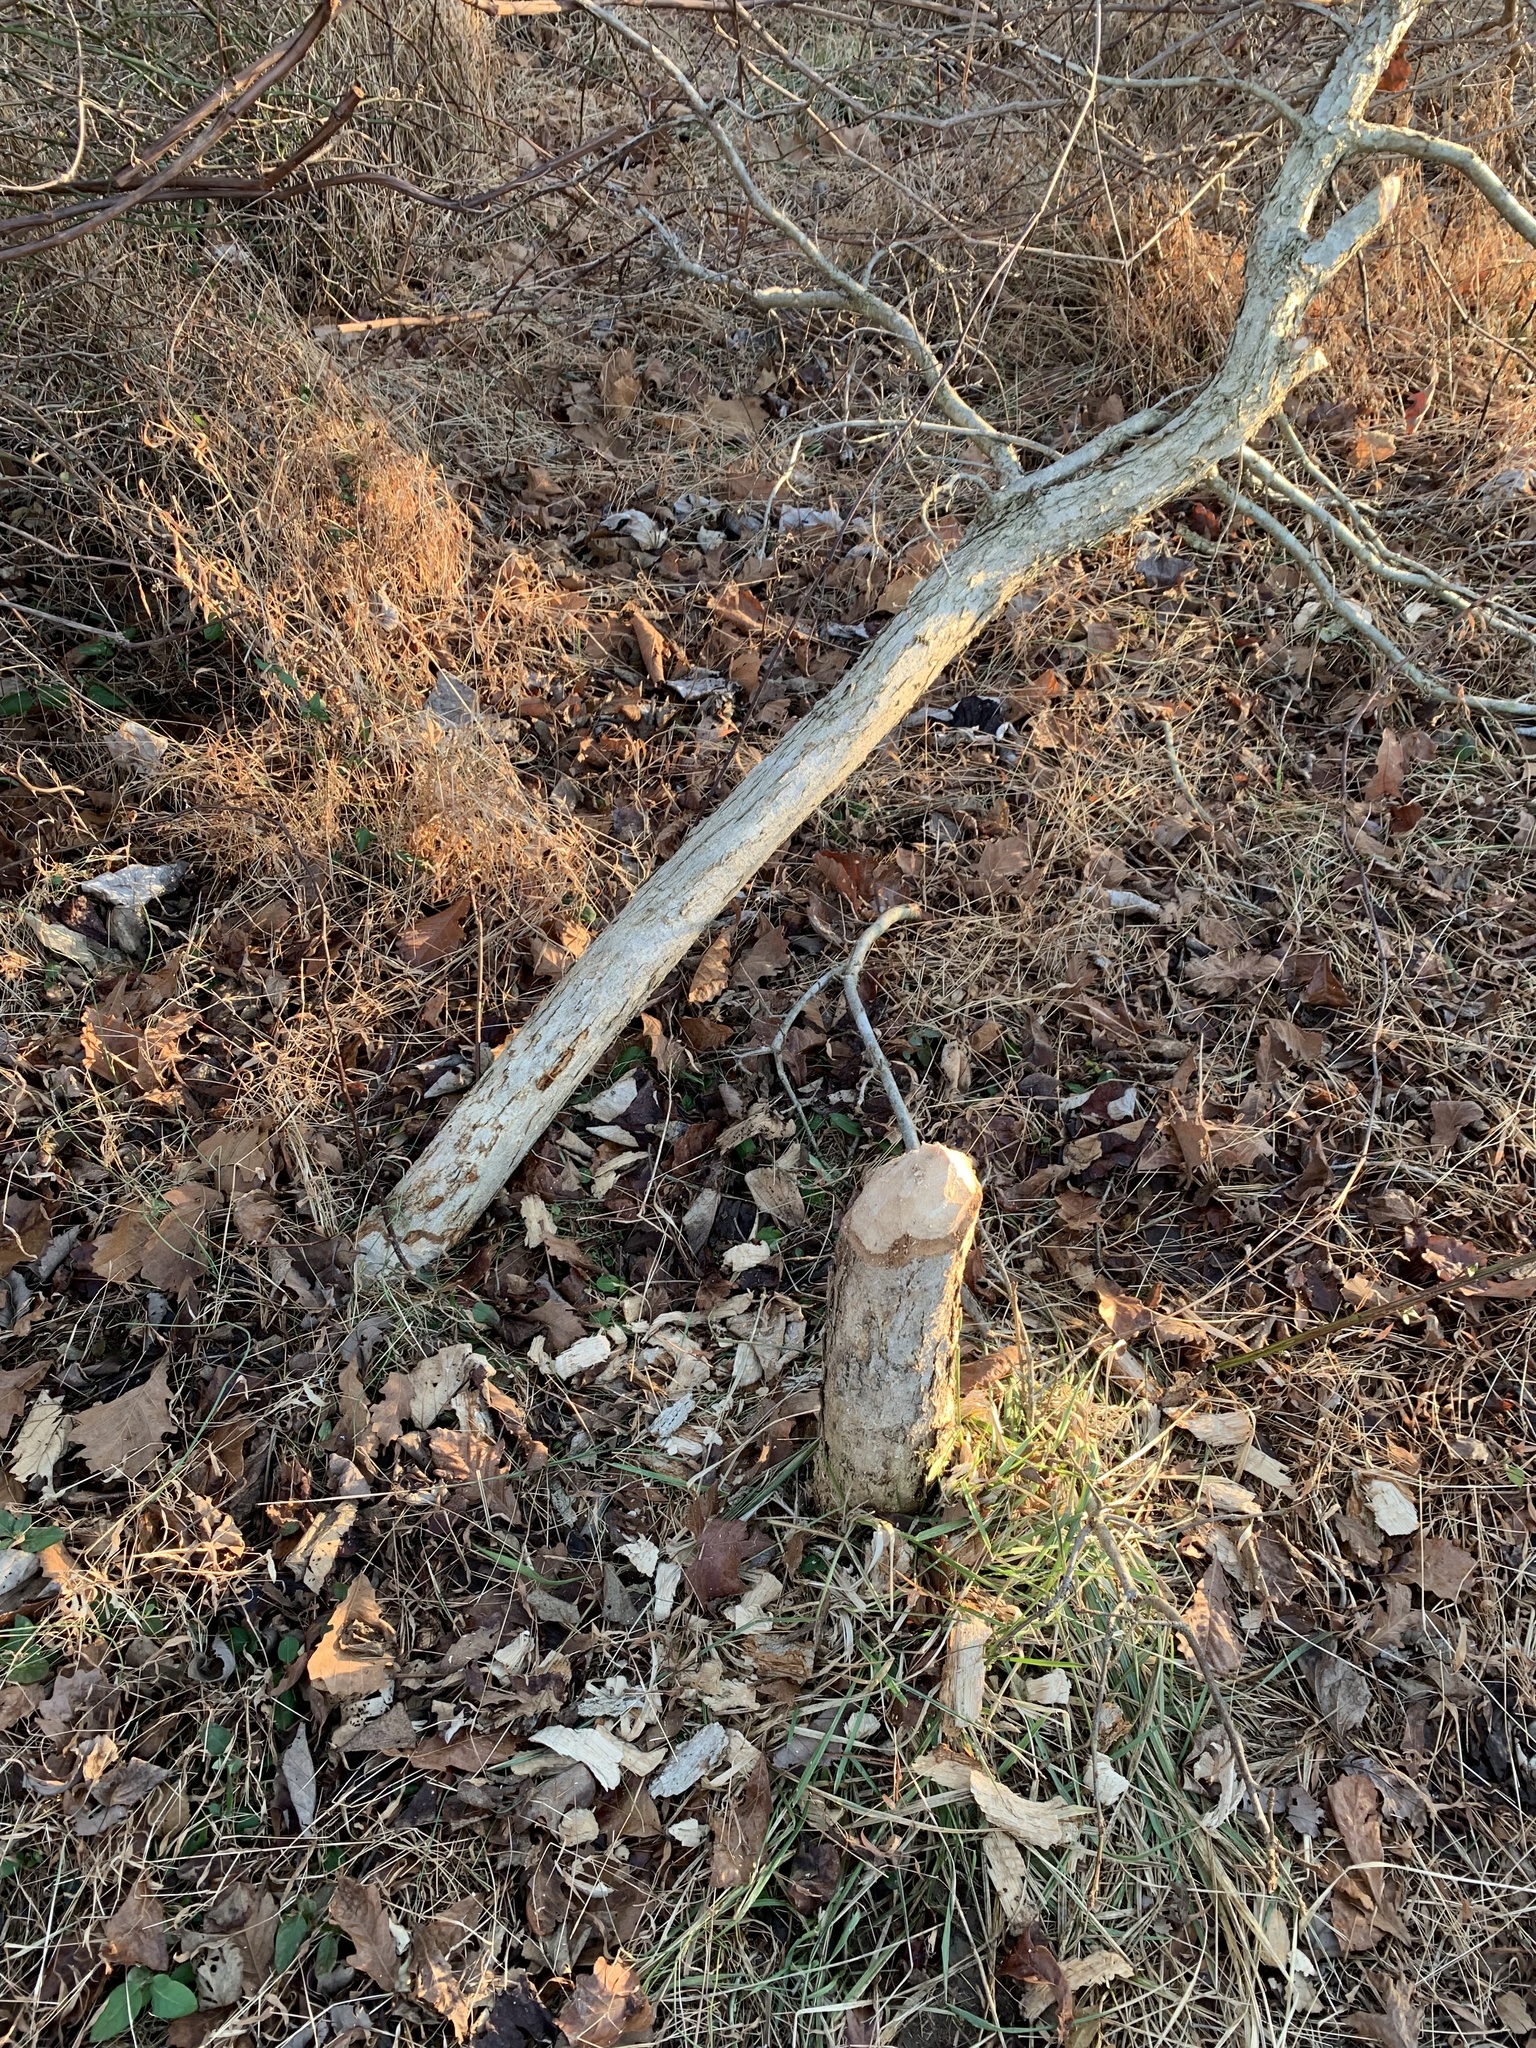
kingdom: Animalia
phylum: Chordata
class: Mammalia
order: Rodentia
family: Castoridae
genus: Castor
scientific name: Castor canadensis
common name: American beaver
